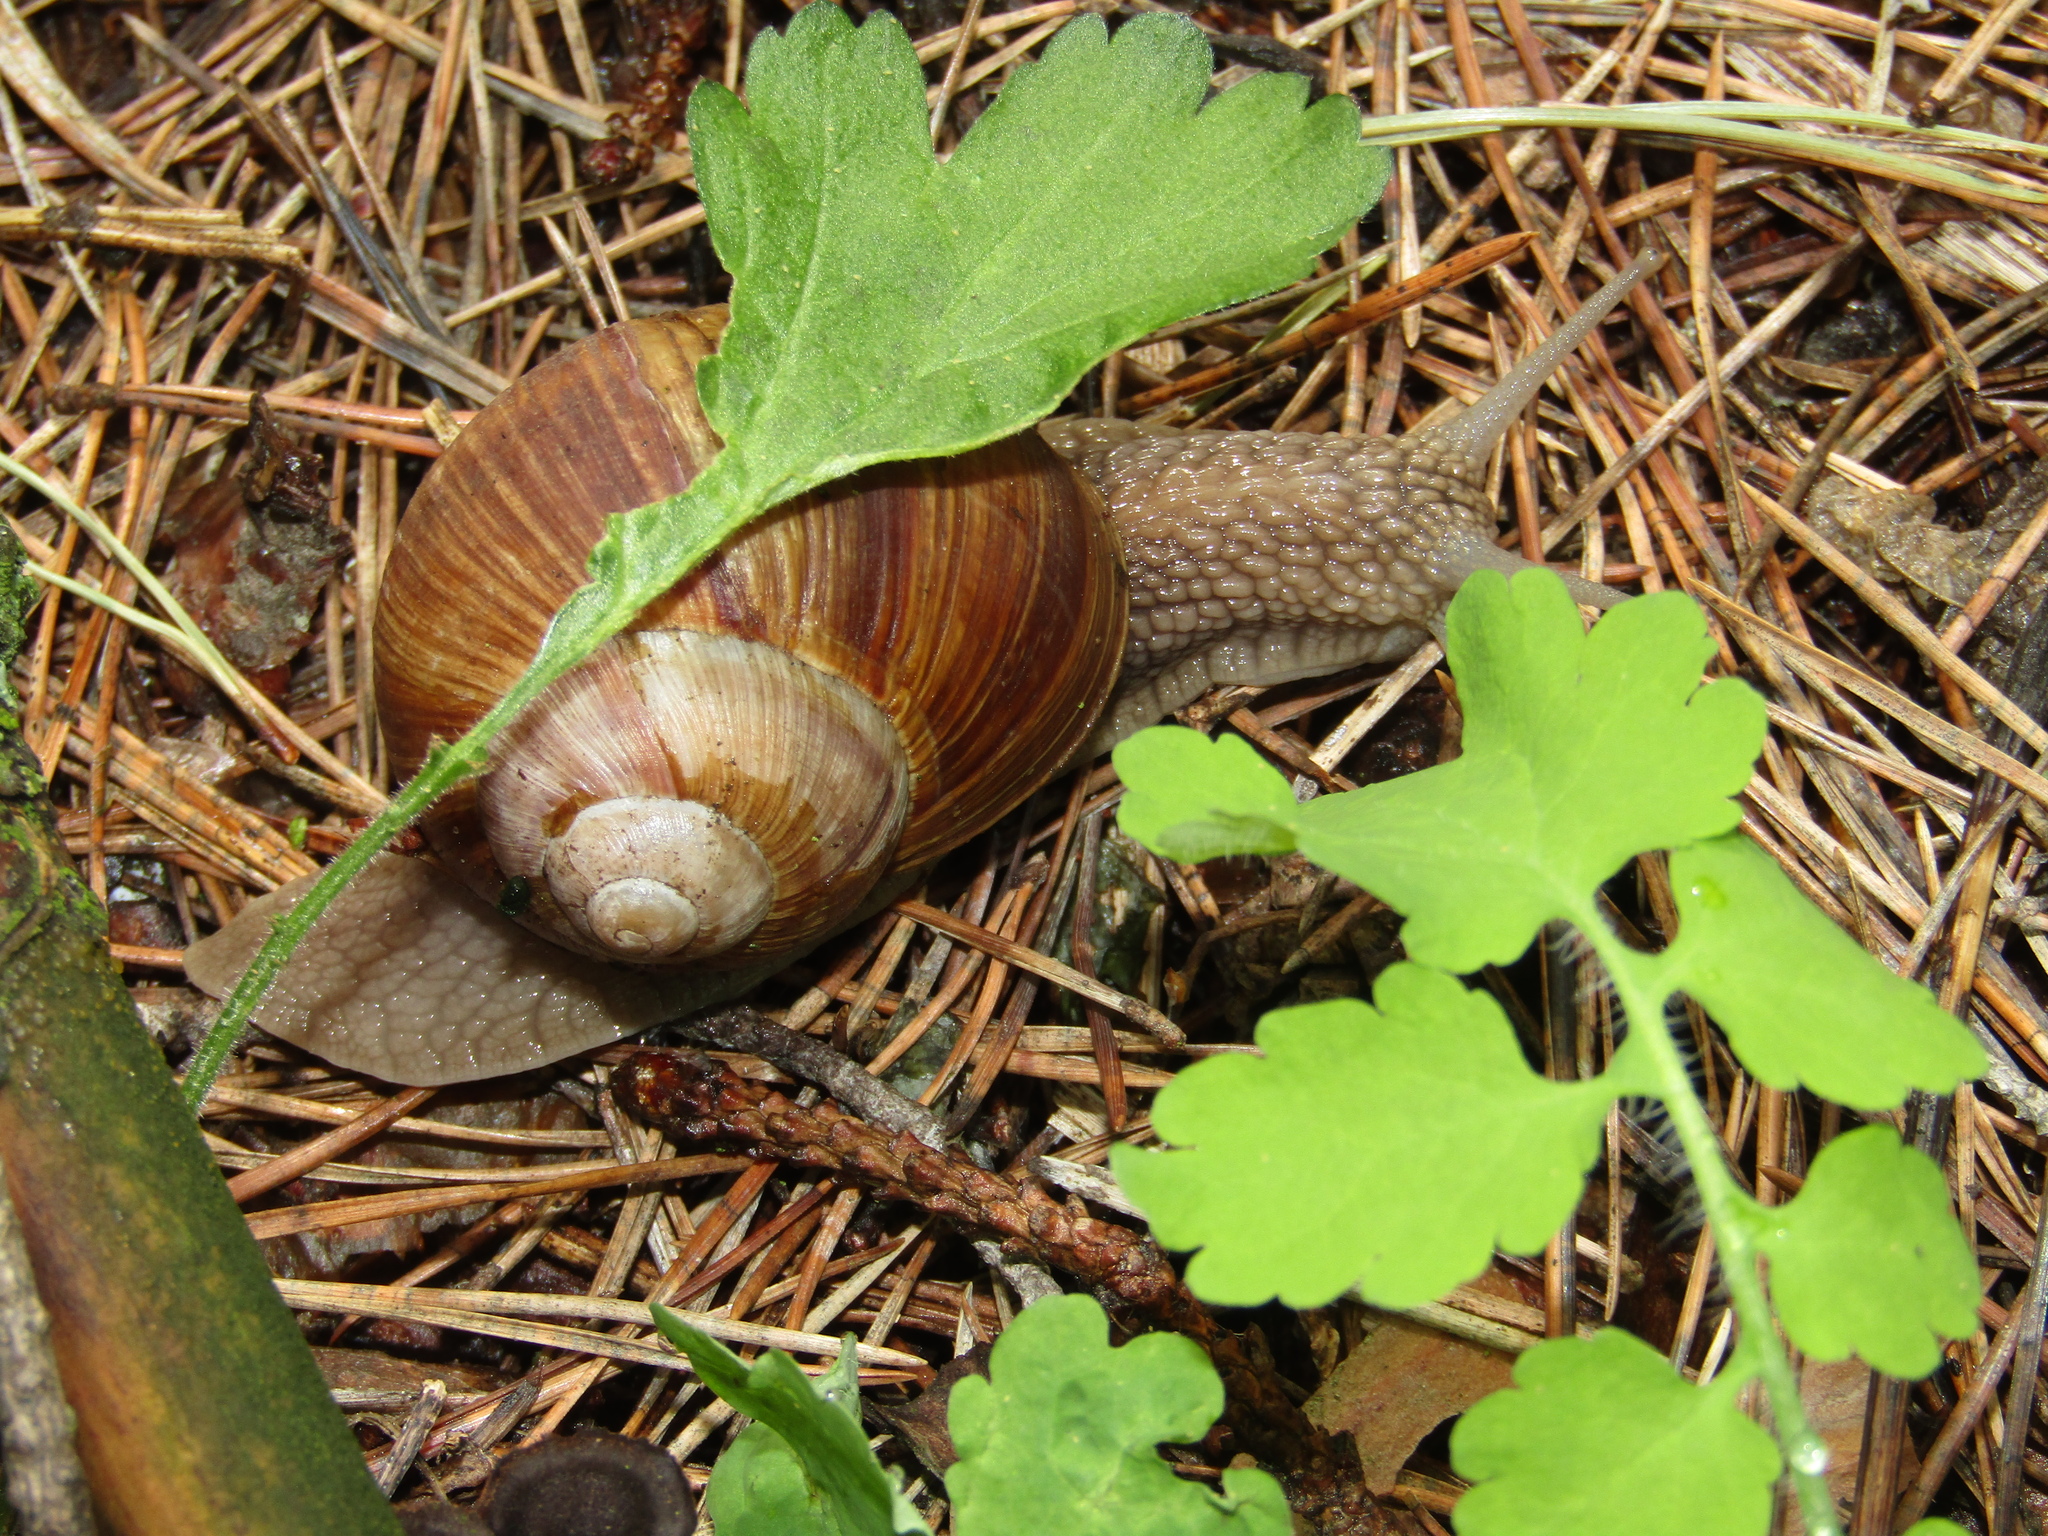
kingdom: Animalia
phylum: Mollusca
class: Gastropoda
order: Stylommatophora
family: Helicidae
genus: Helix
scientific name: Helix pomatia
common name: Roman snail
